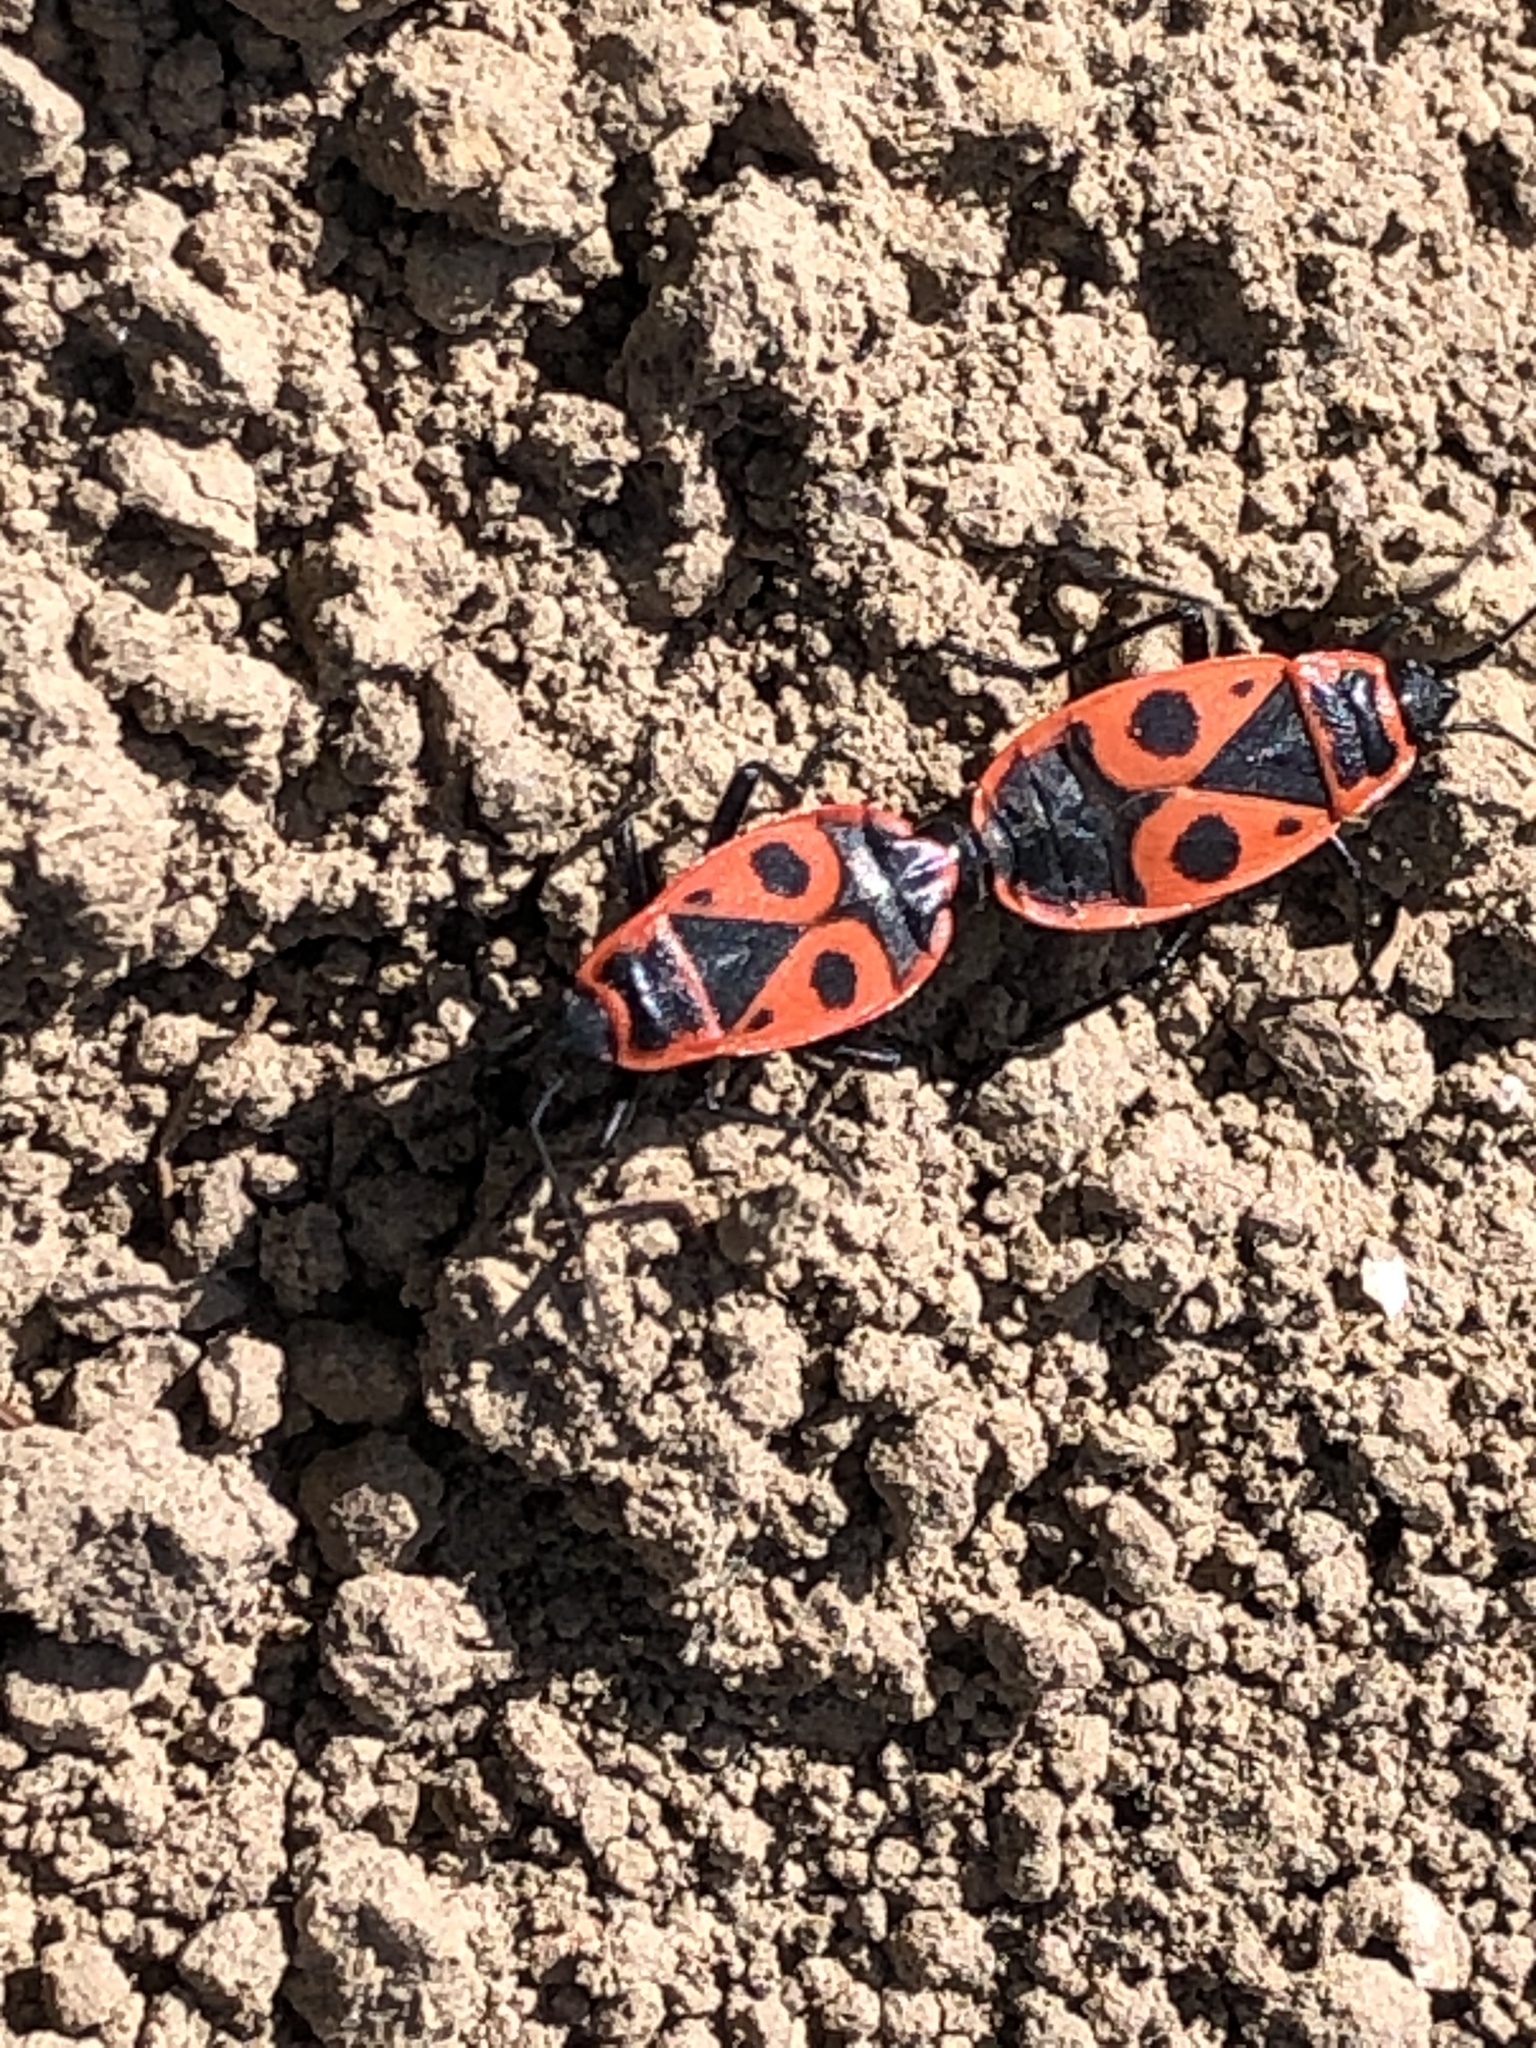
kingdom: Animalia
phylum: Arthropoda
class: Insecta
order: Hemiptera
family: Pyrrhocoridae
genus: Pyrrhocoris
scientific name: Pyrrhocoris apterus
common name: Firebug
